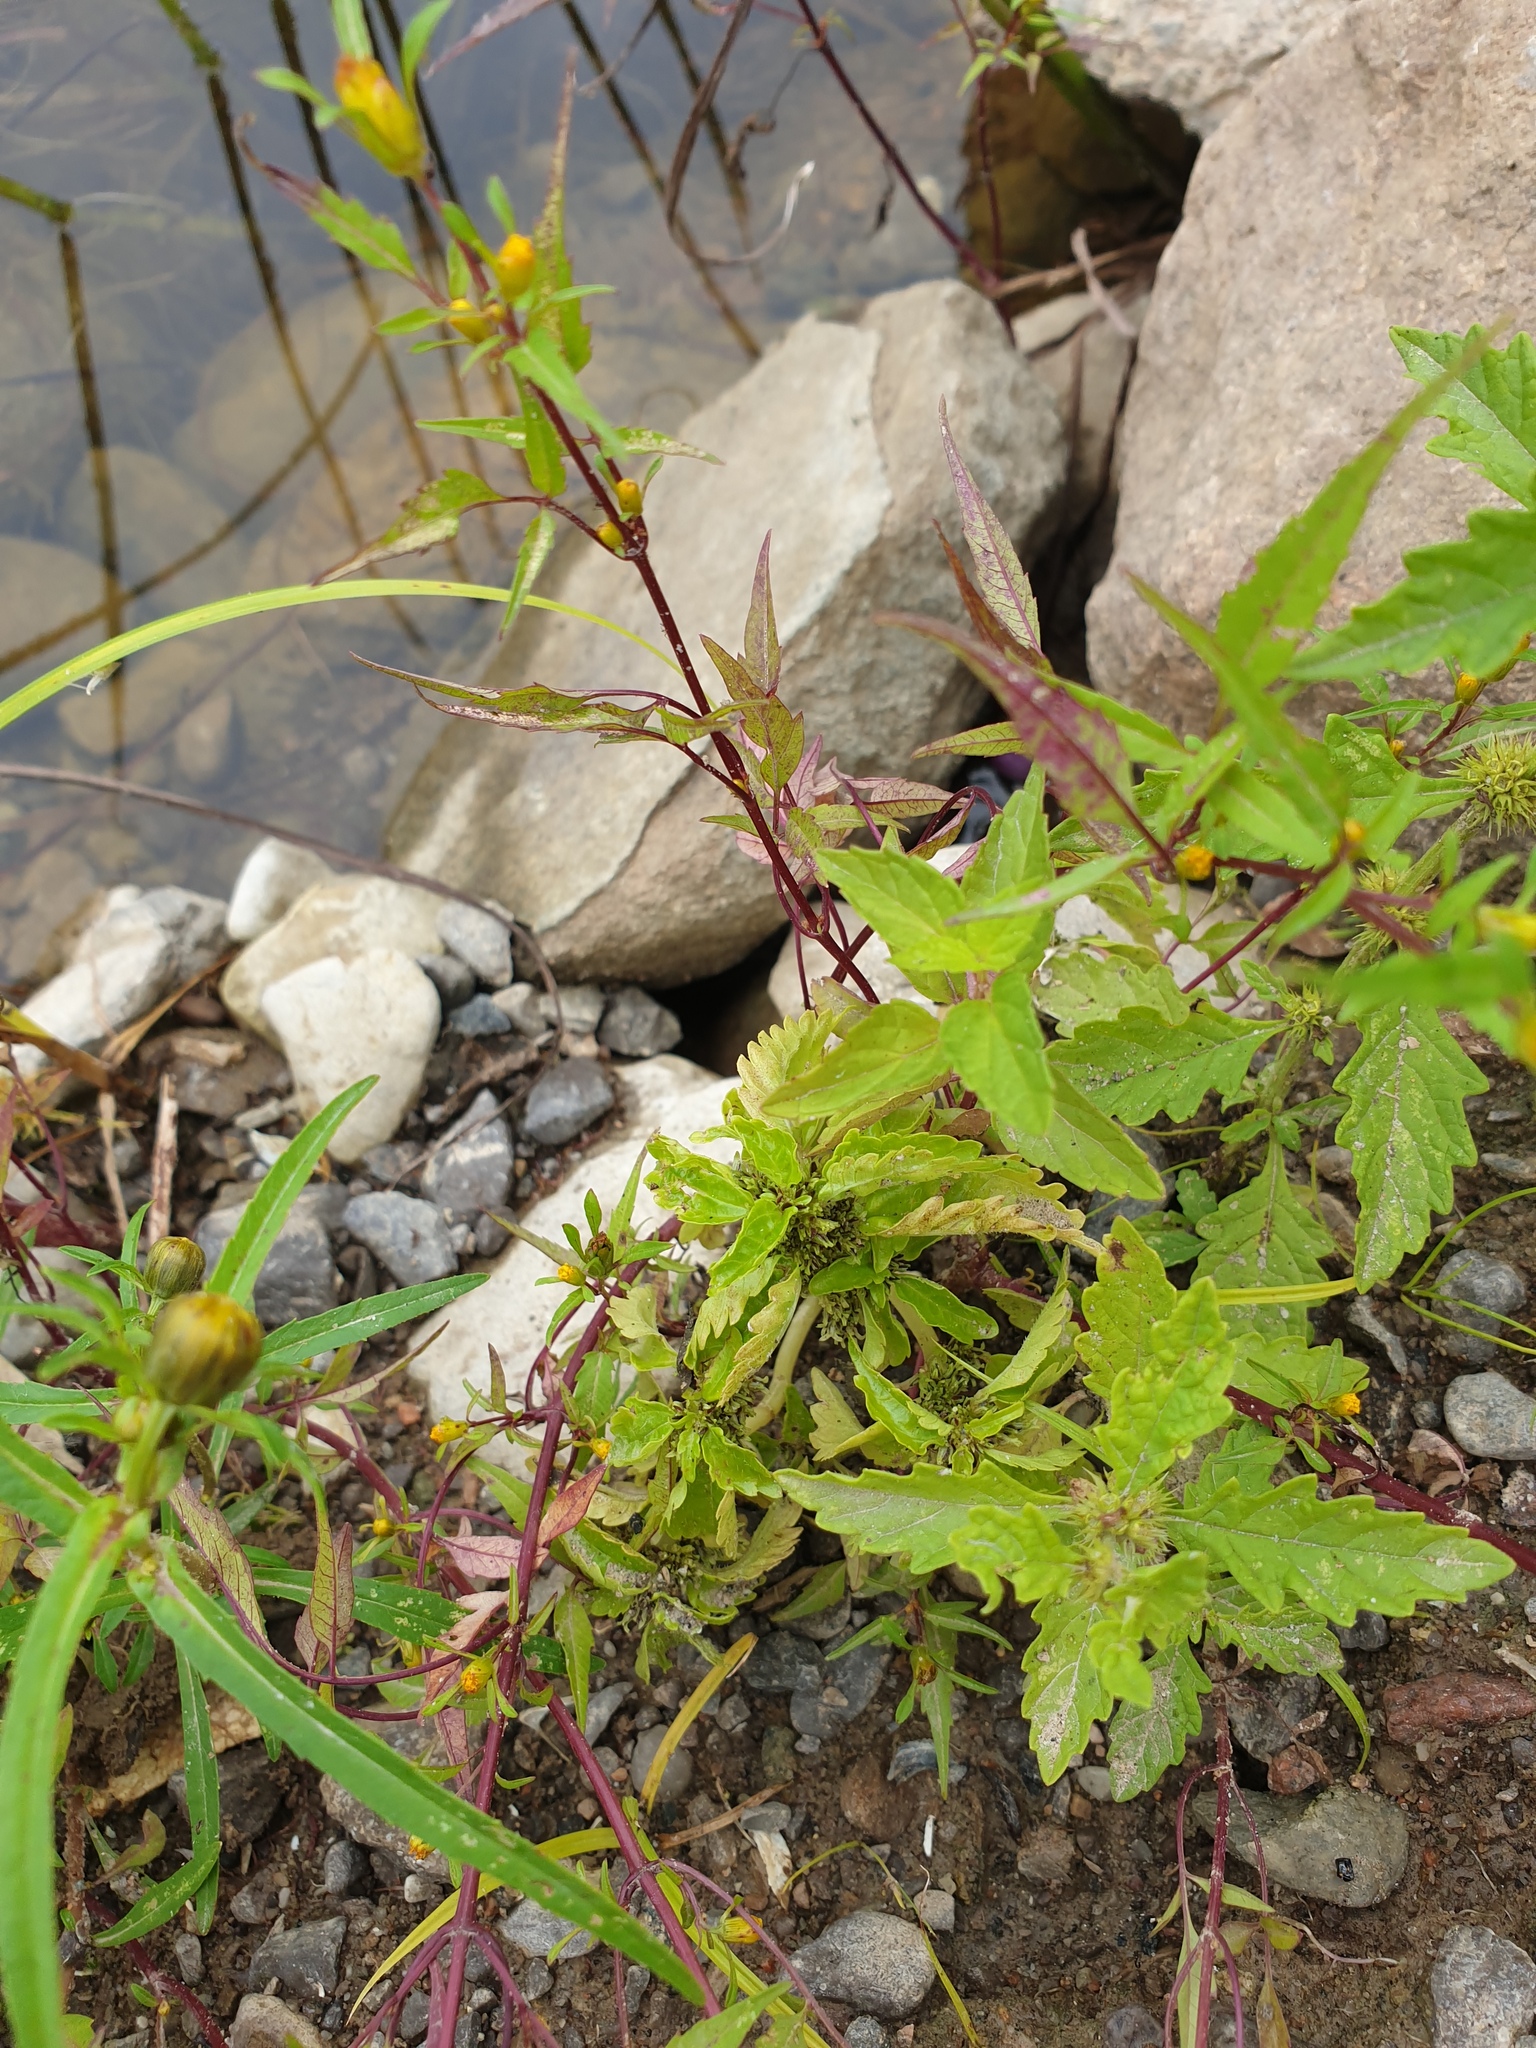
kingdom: Plantae
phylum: Tracheophyta
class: Magnoliopsida
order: Rosales
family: Urticaceae
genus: Pilea
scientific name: Pilea fontana
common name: Clearweed
